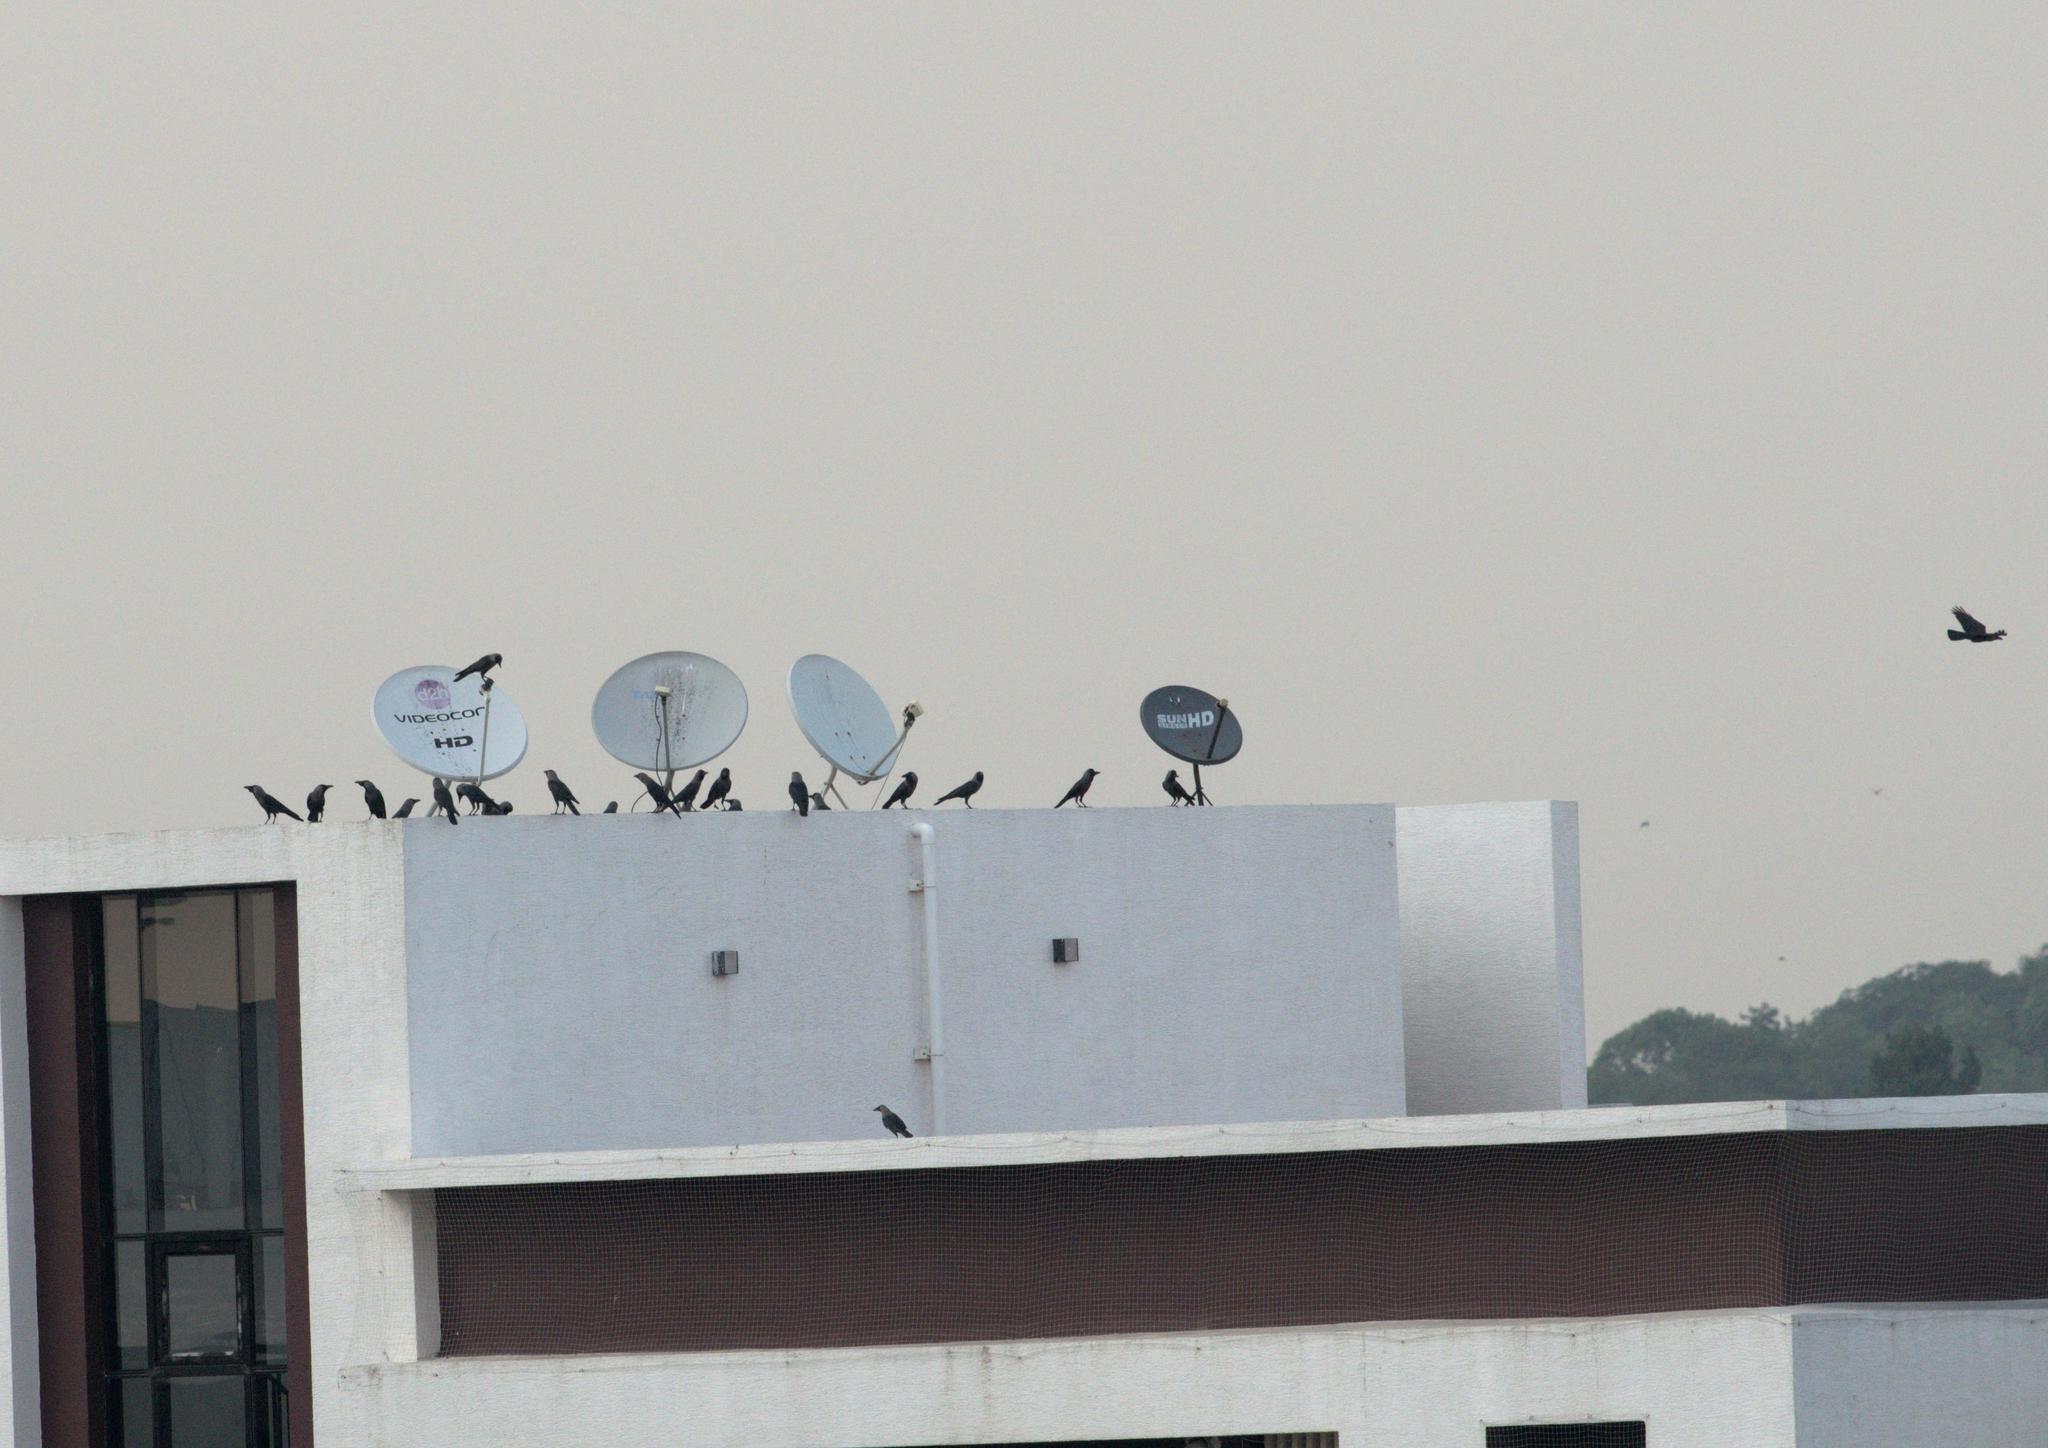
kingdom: Animalia
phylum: Chordata
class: Aves
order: Passeriformes
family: Corvidae
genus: Corvus
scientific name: Corvus splendens
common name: House crow
